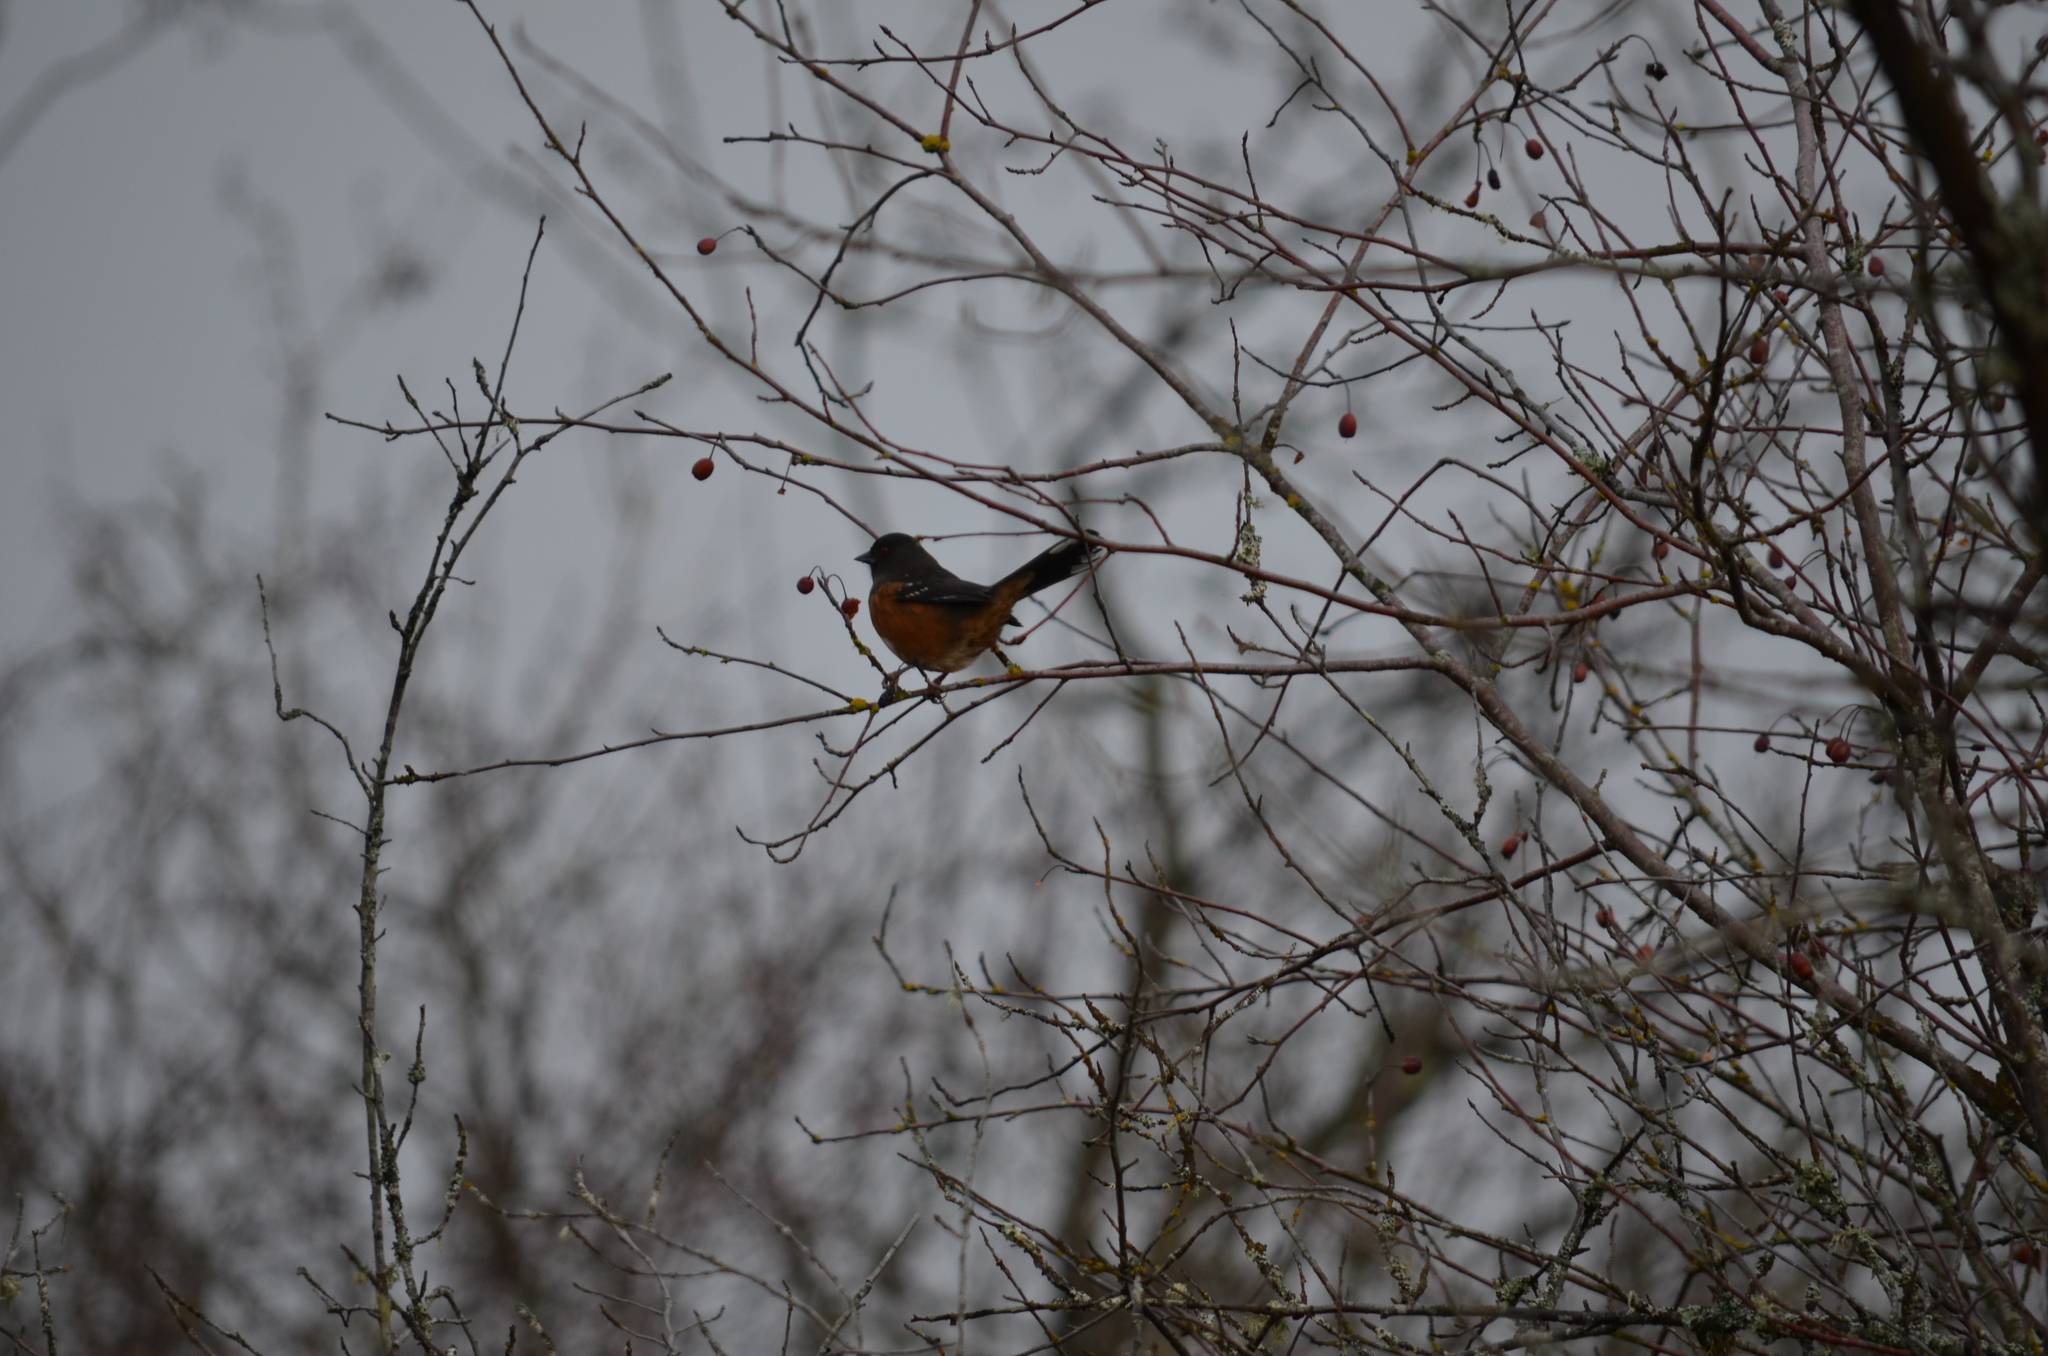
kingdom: Animalia
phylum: Chordata
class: Aves
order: Passeriformes
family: Passerellidae
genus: Pipilo
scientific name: Pipilo maculatus
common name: Spotted towhee
